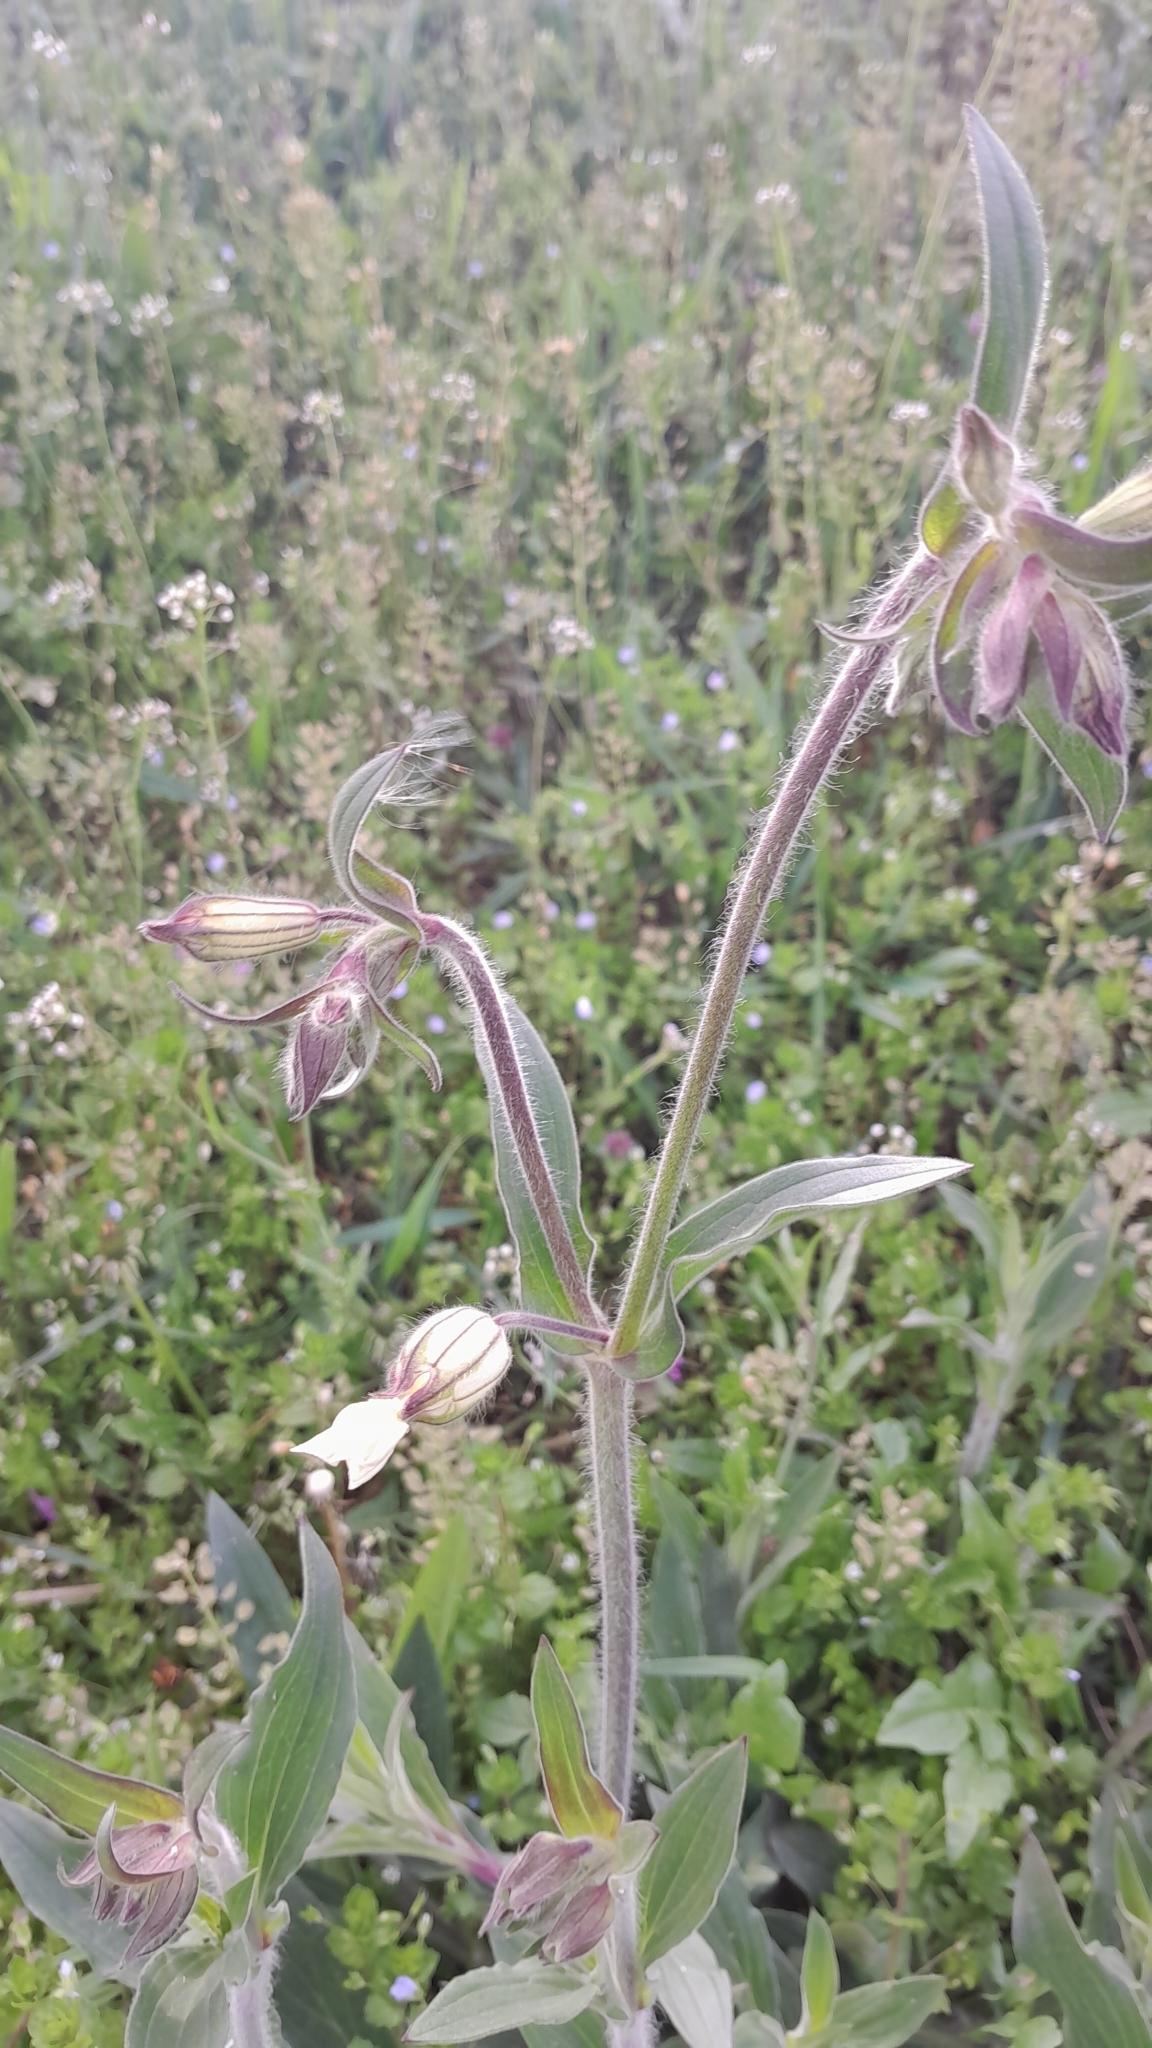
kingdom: Plantae
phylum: Tracheophyta
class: Magnoliopsida
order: Caryophyllales
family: Caryophyllaceae
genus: Silene
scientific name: Silene latifolia
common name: White campion
